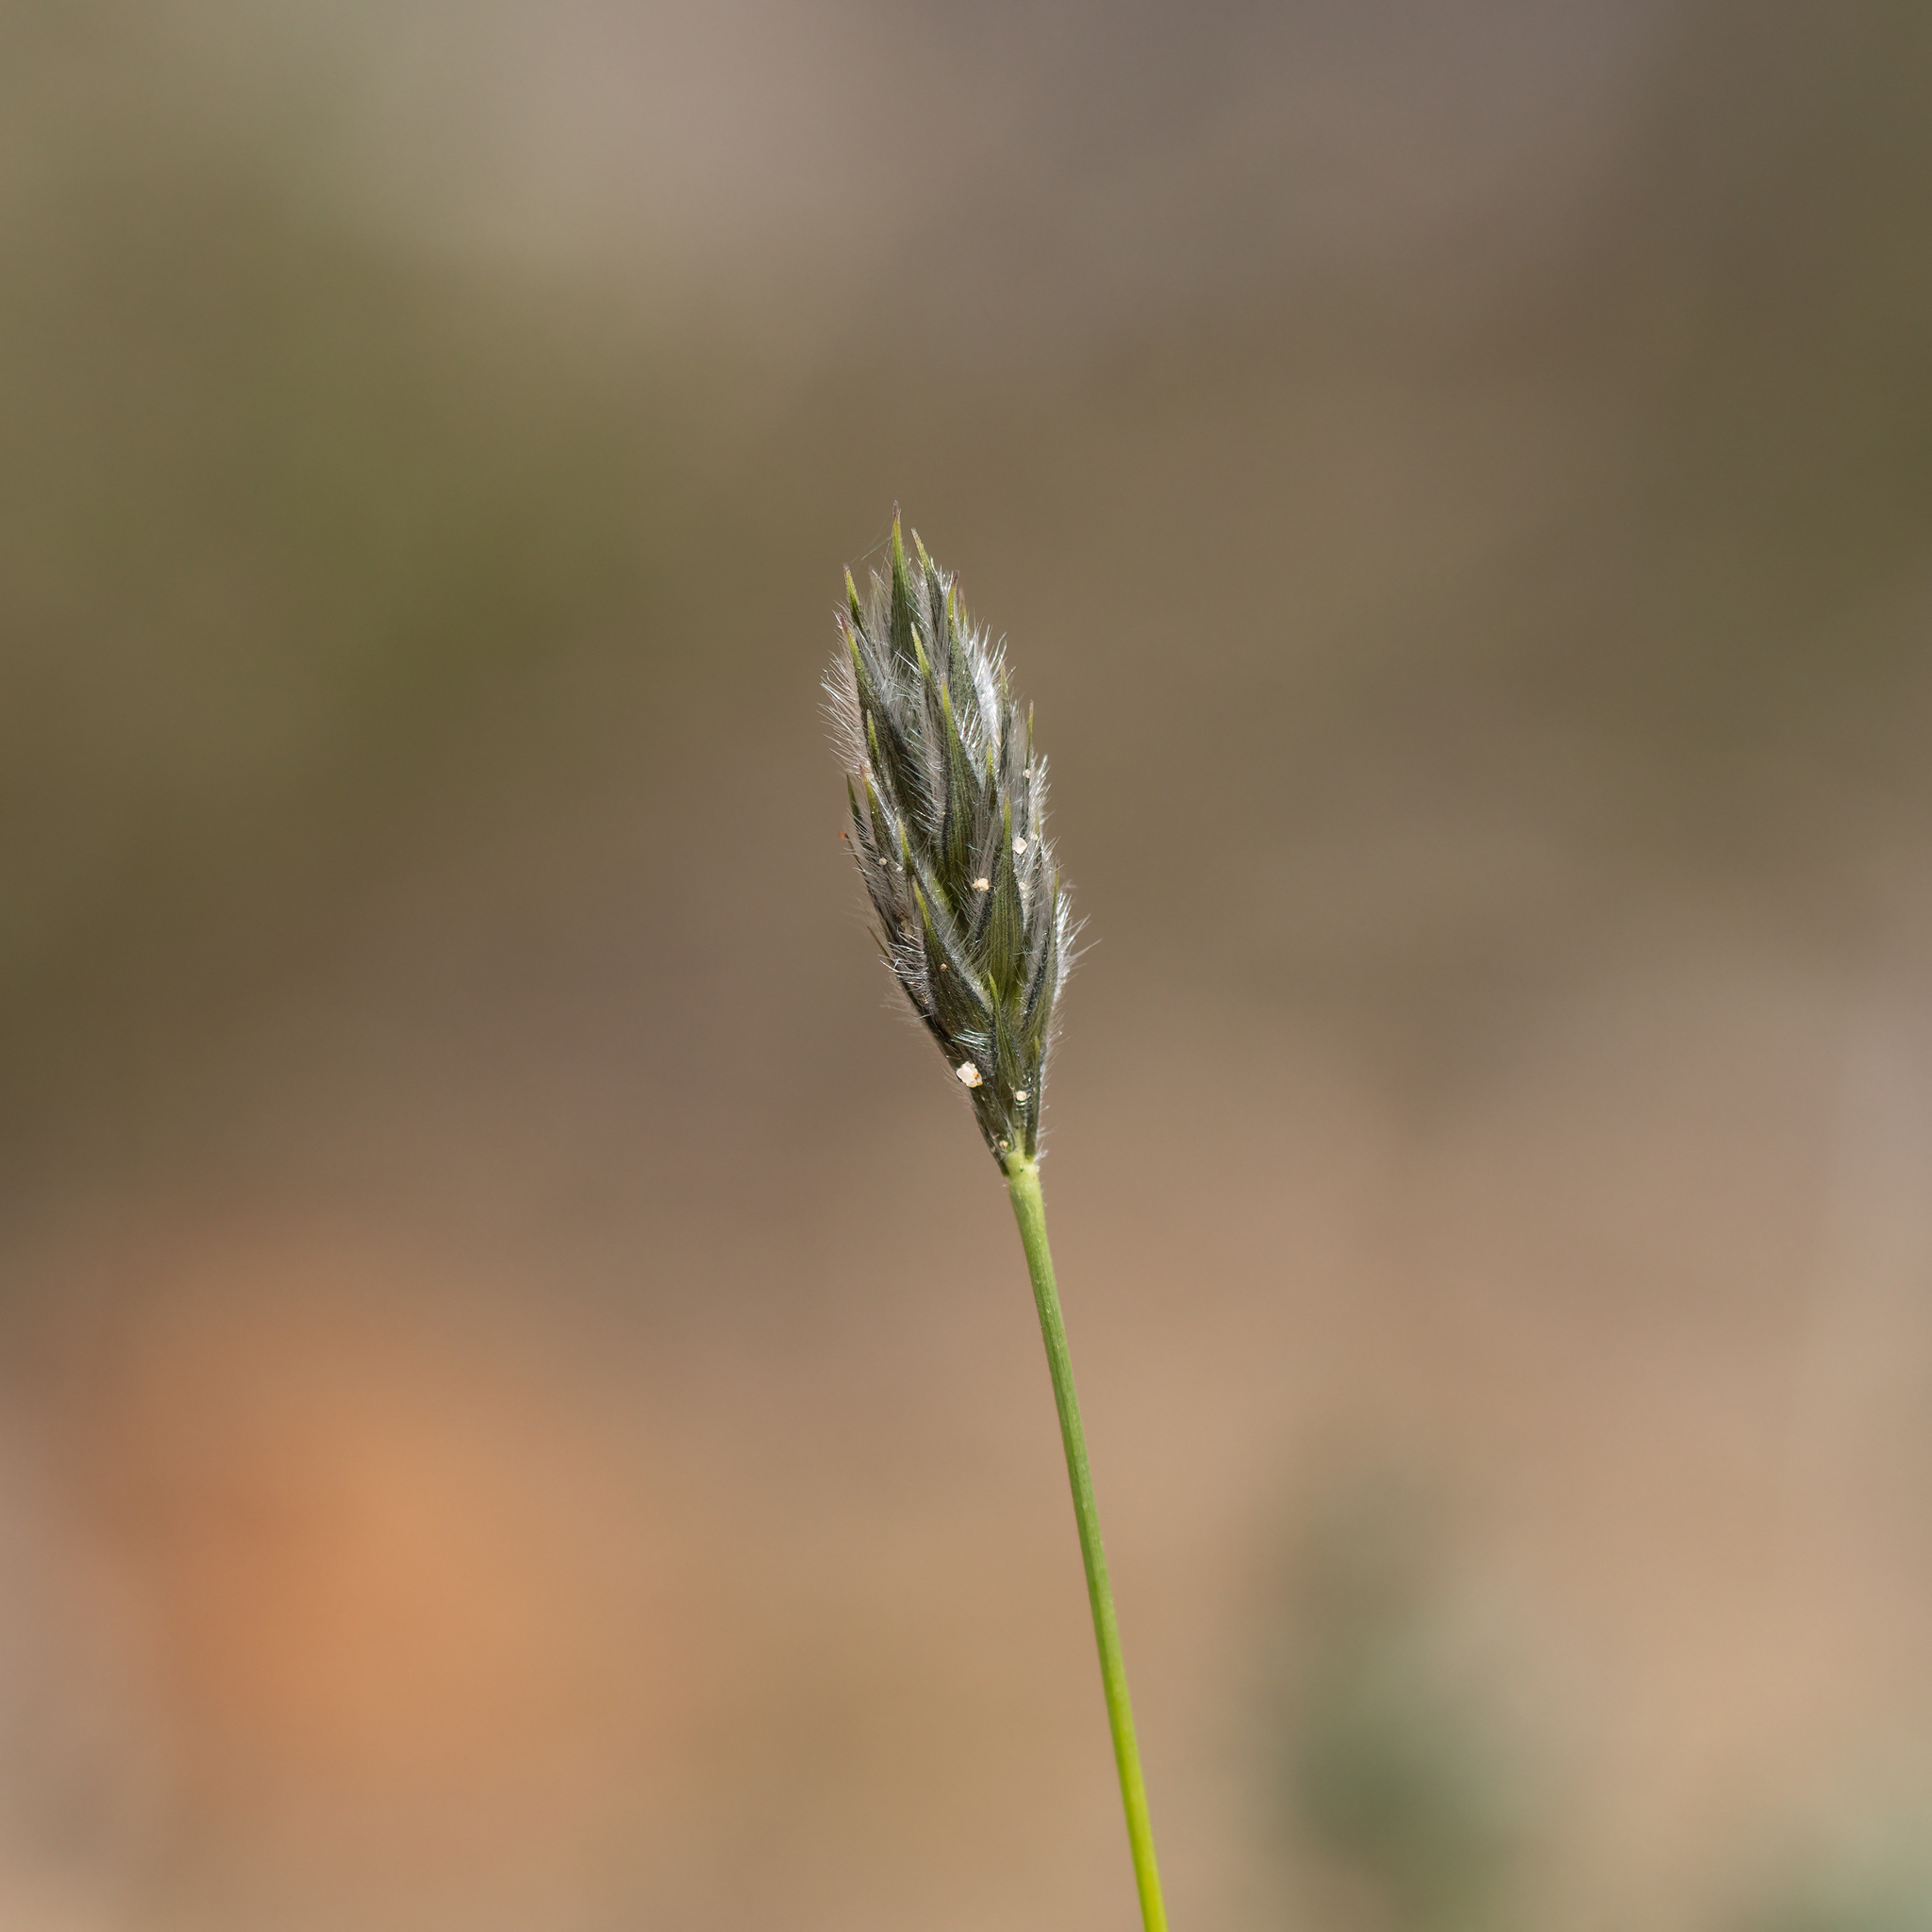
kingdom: Plantae
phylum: Tracheophyta
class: Liliopsida
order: Poales
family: Poaceae
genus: Neurachne
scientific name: Neurachne alopecuroidea
